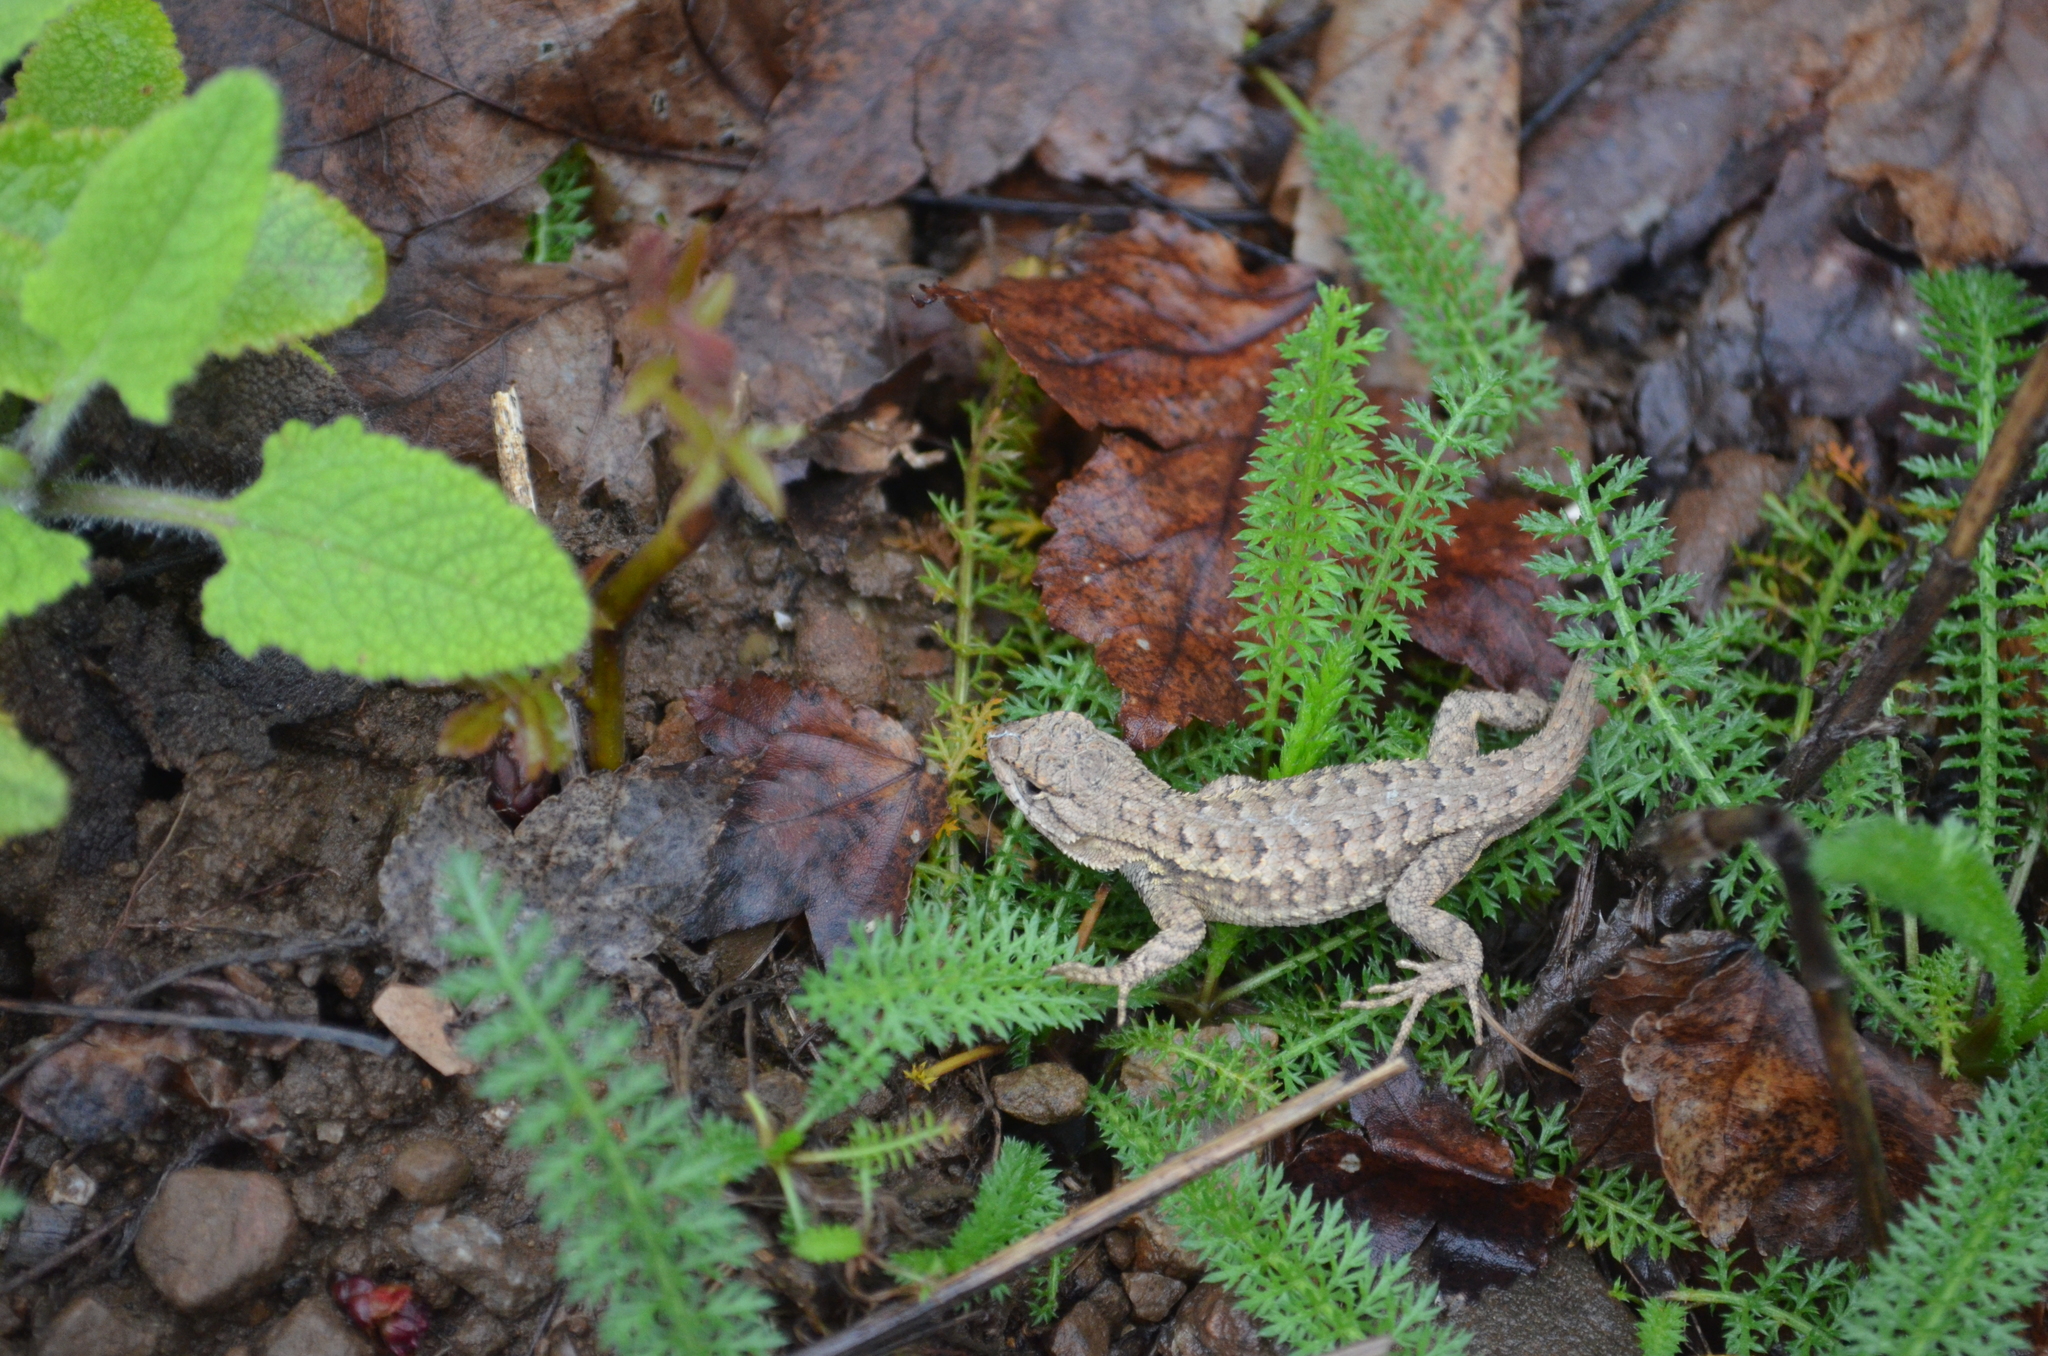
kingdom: Animalia
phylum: Chordata
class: Squamata
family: Phrynosomatidae
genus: Sceloporus
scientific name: Sceloporus occidentalis
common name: Western fence lizard
